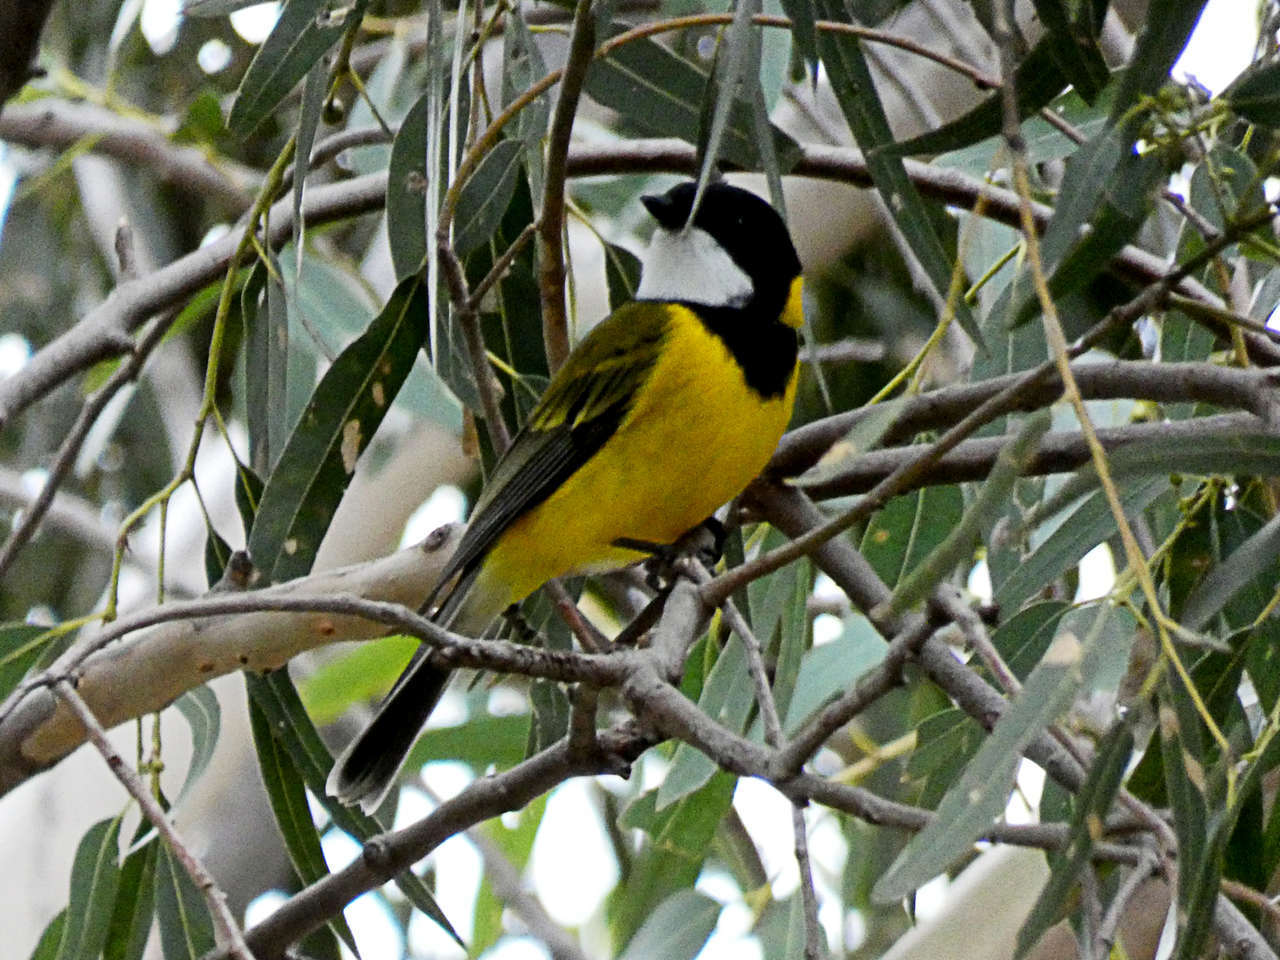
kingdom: Animalia
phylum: Chordata
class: Aves
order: Passeriformes
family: Pachycephalidae
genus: Pachycephala
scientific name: Pachycephala pectoralis
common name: Australian golden whistler
